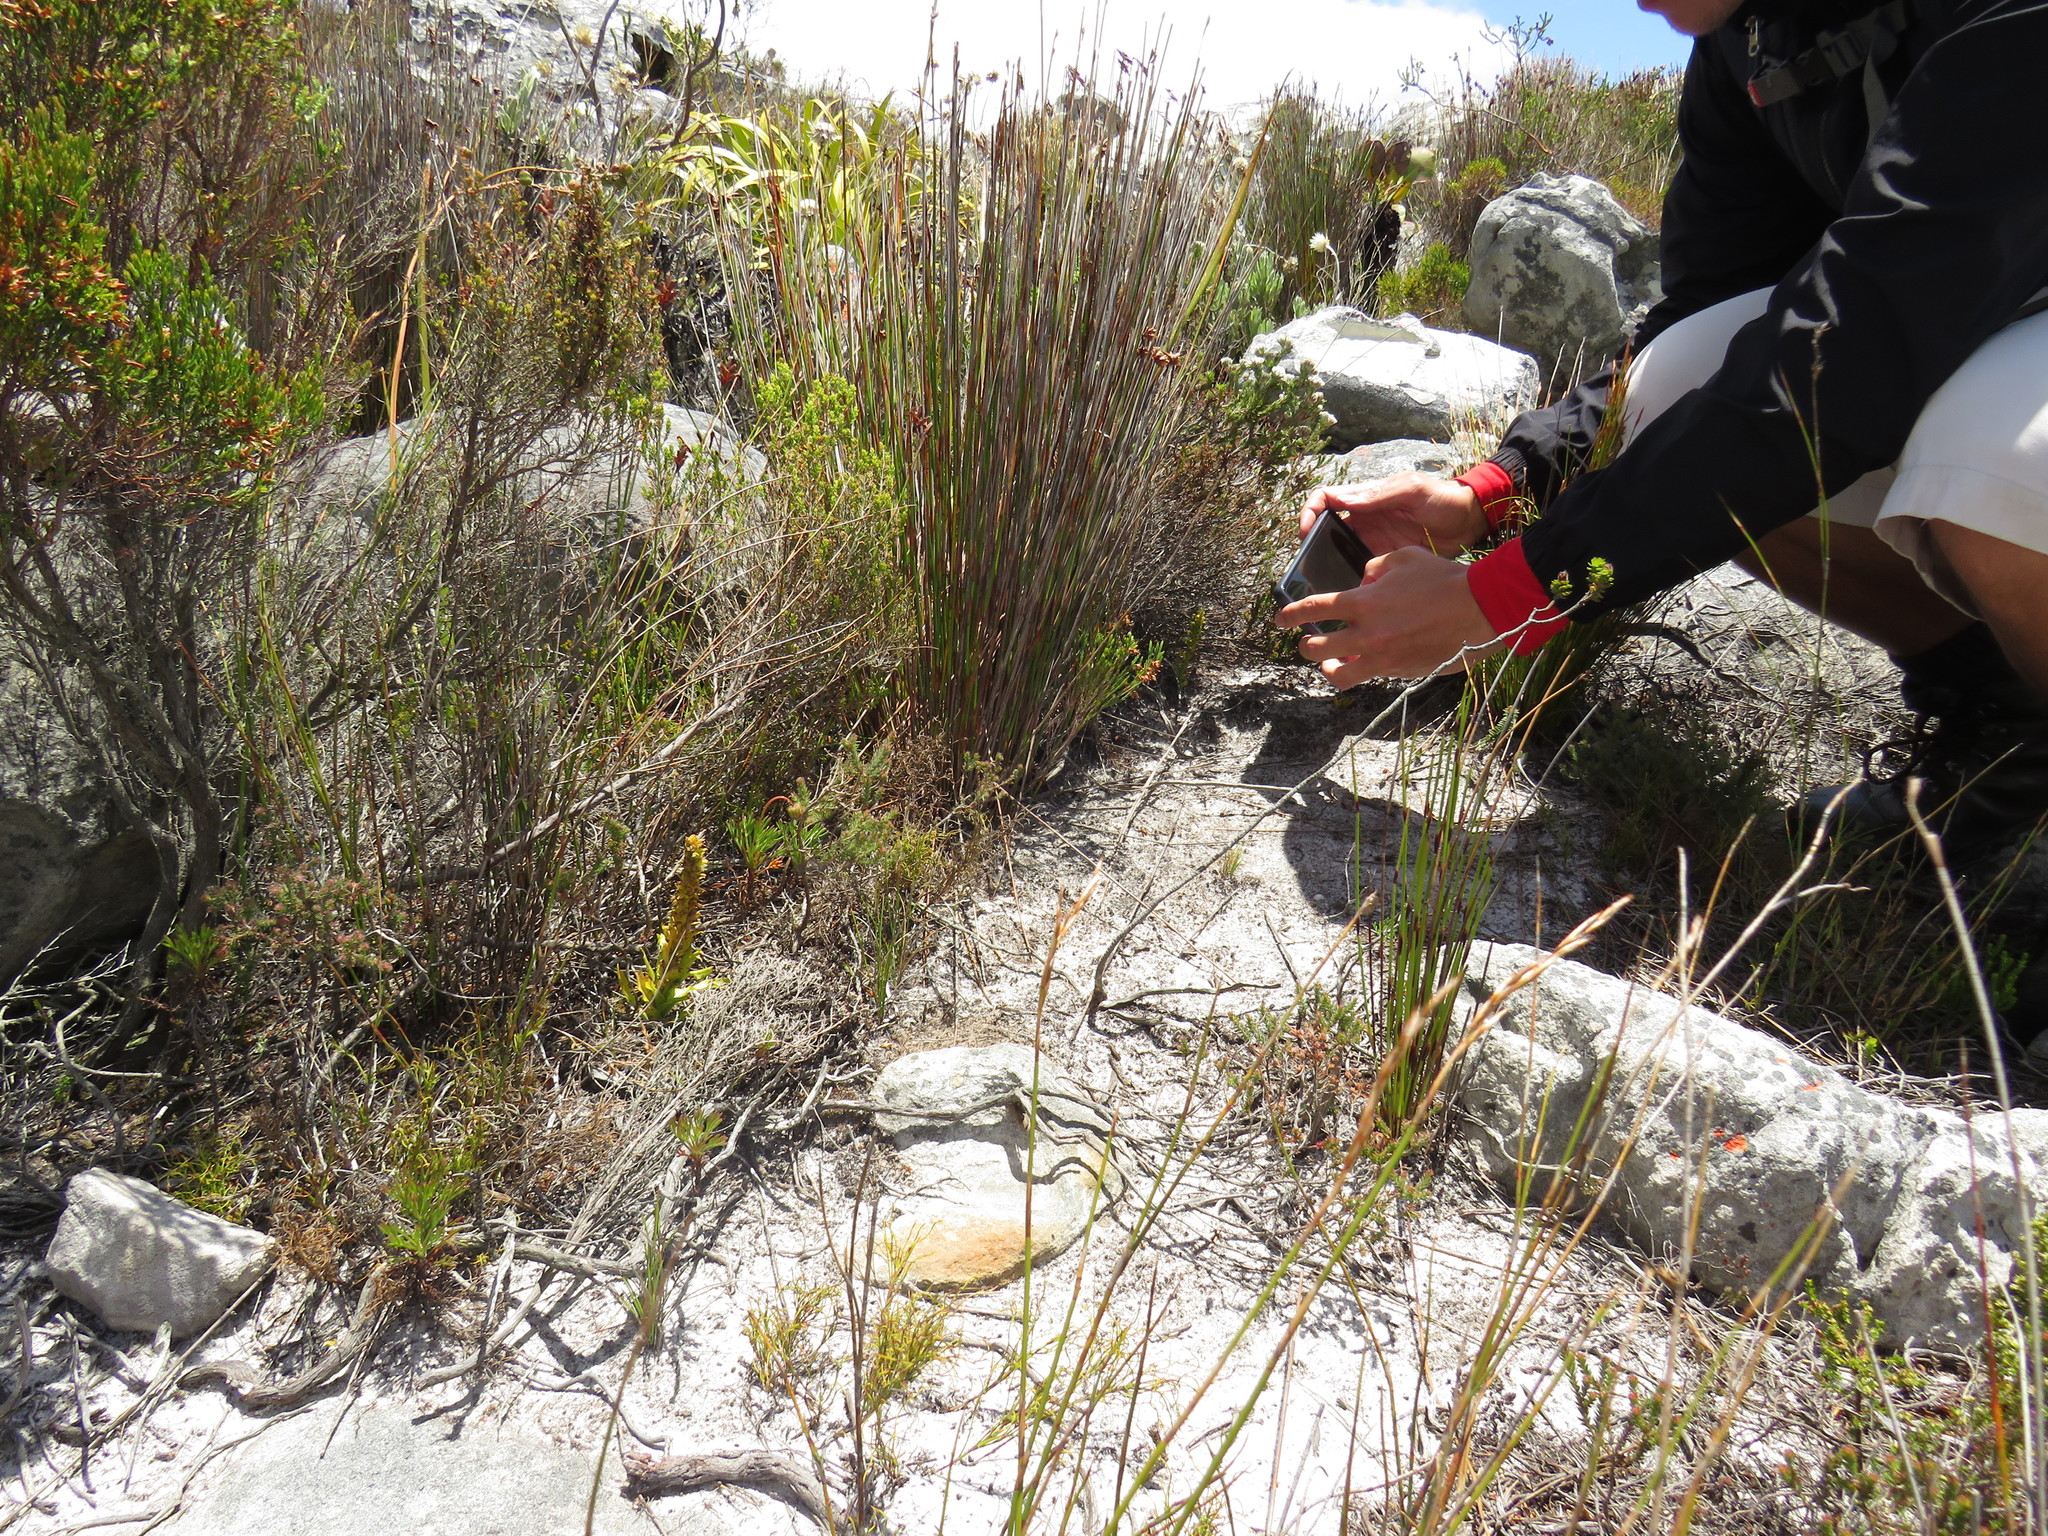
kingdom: Plantae
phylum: Tracheophyta
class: Liliopsida
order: Asparagales
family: Orchidaceae
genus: Disa
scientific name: Disa cylindrica
